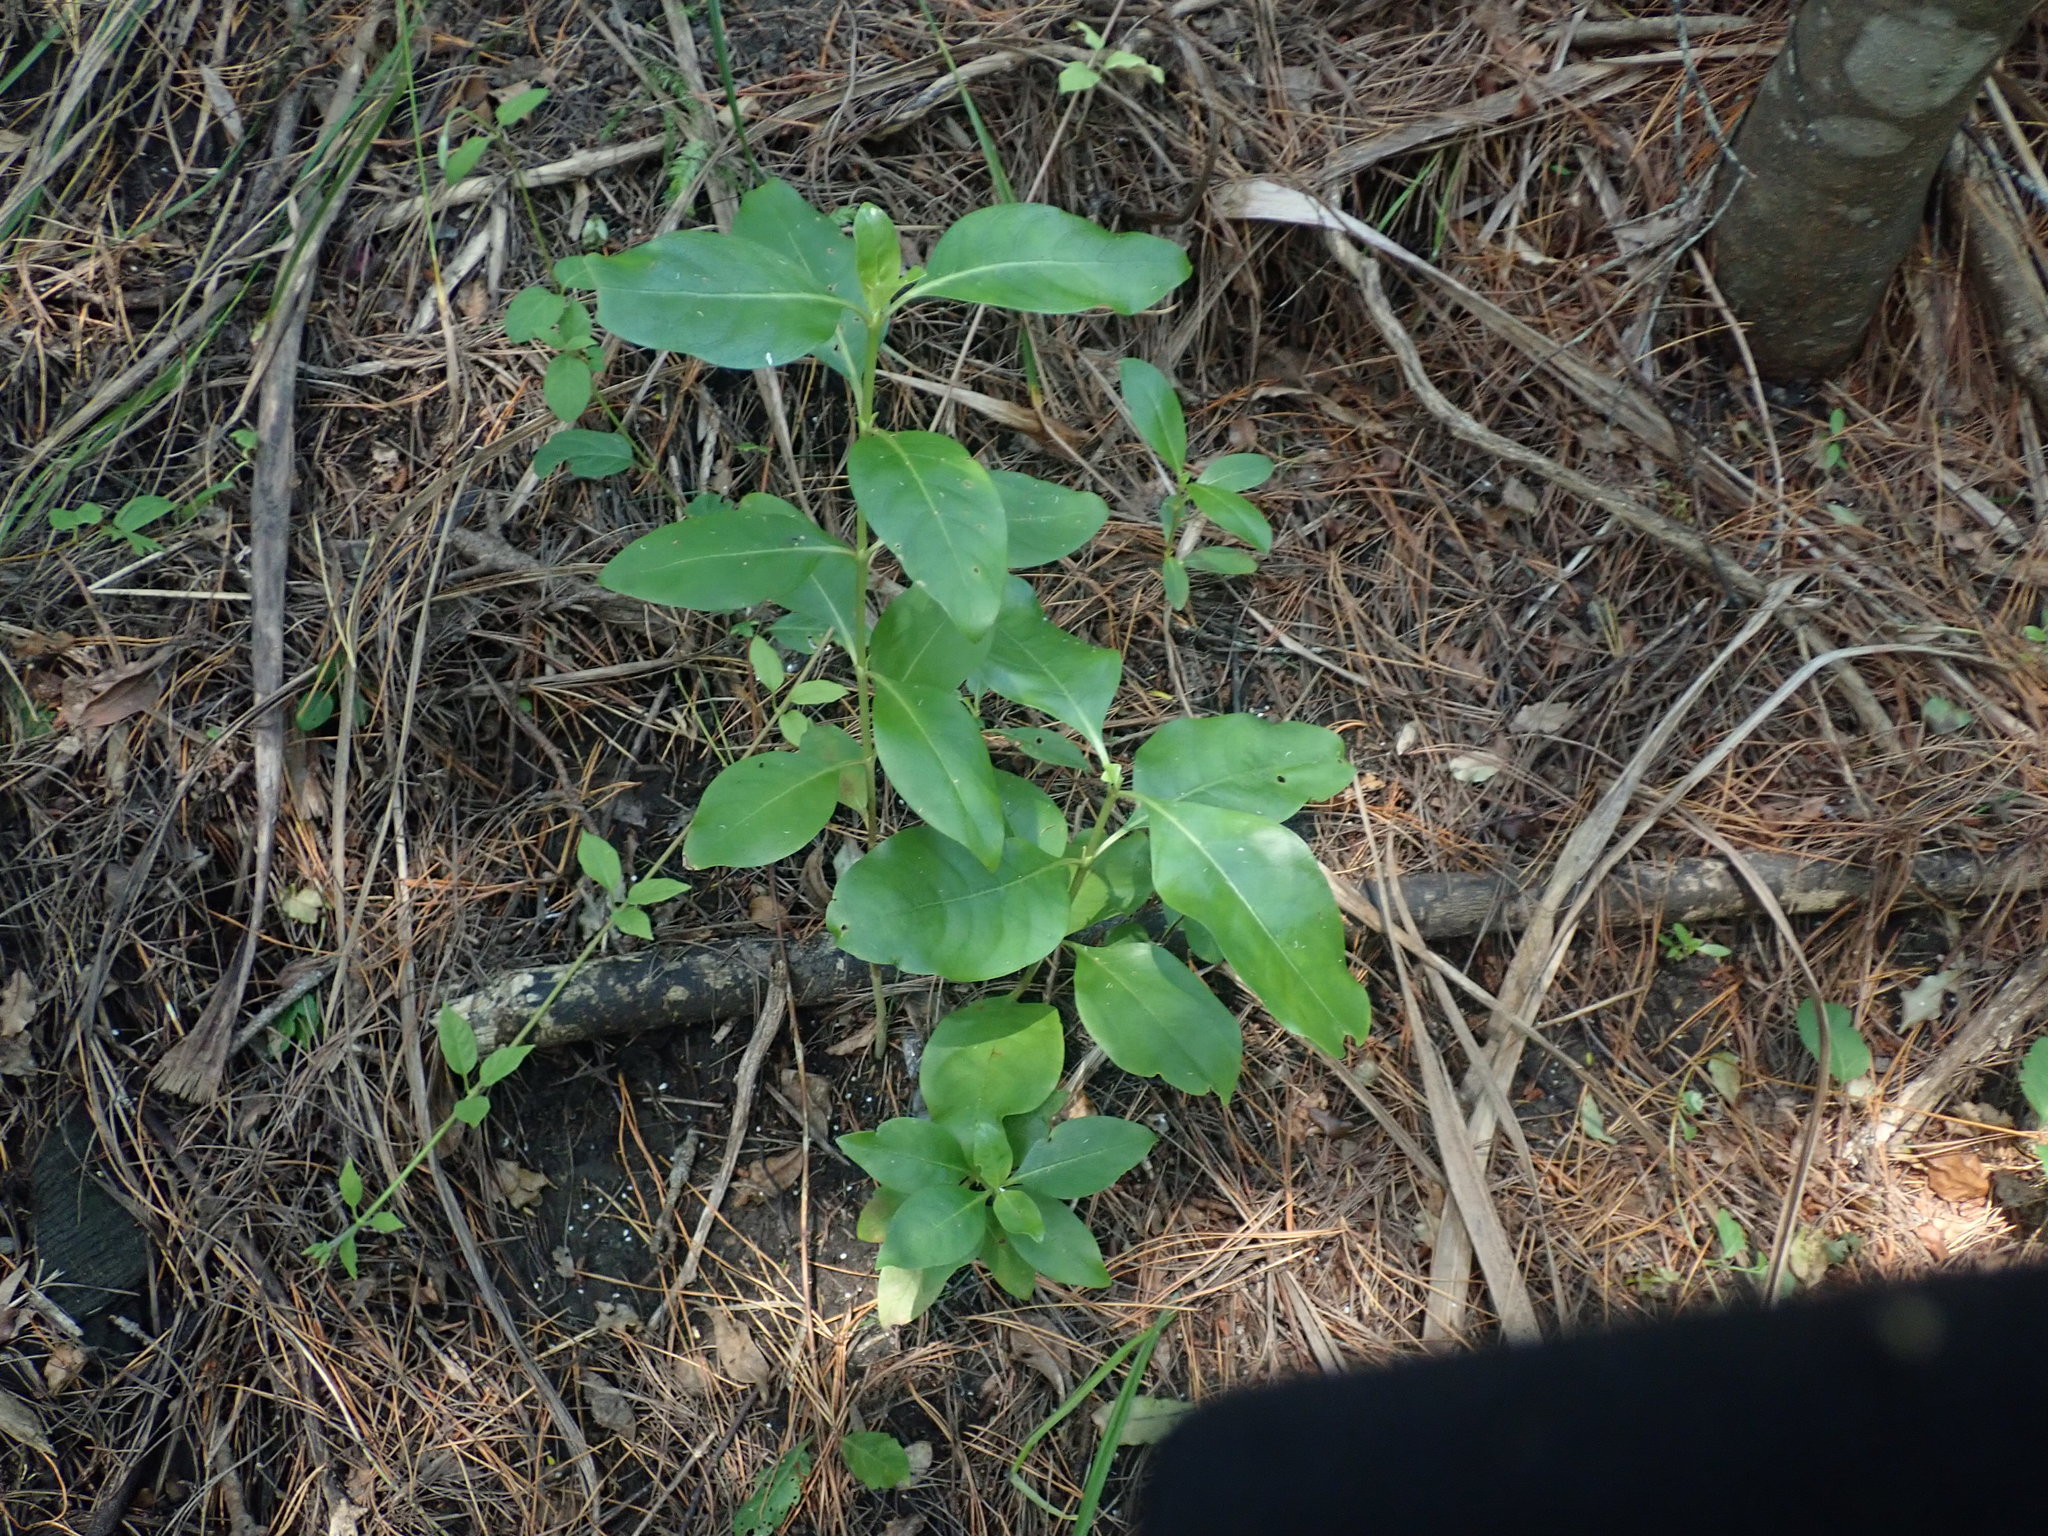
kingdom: Plantae
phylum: Tracheophyta
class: Magnoliopsida
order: Gentianales
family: Rubiaceae
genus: Coprosma
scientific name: Coprosma macrocarpa
